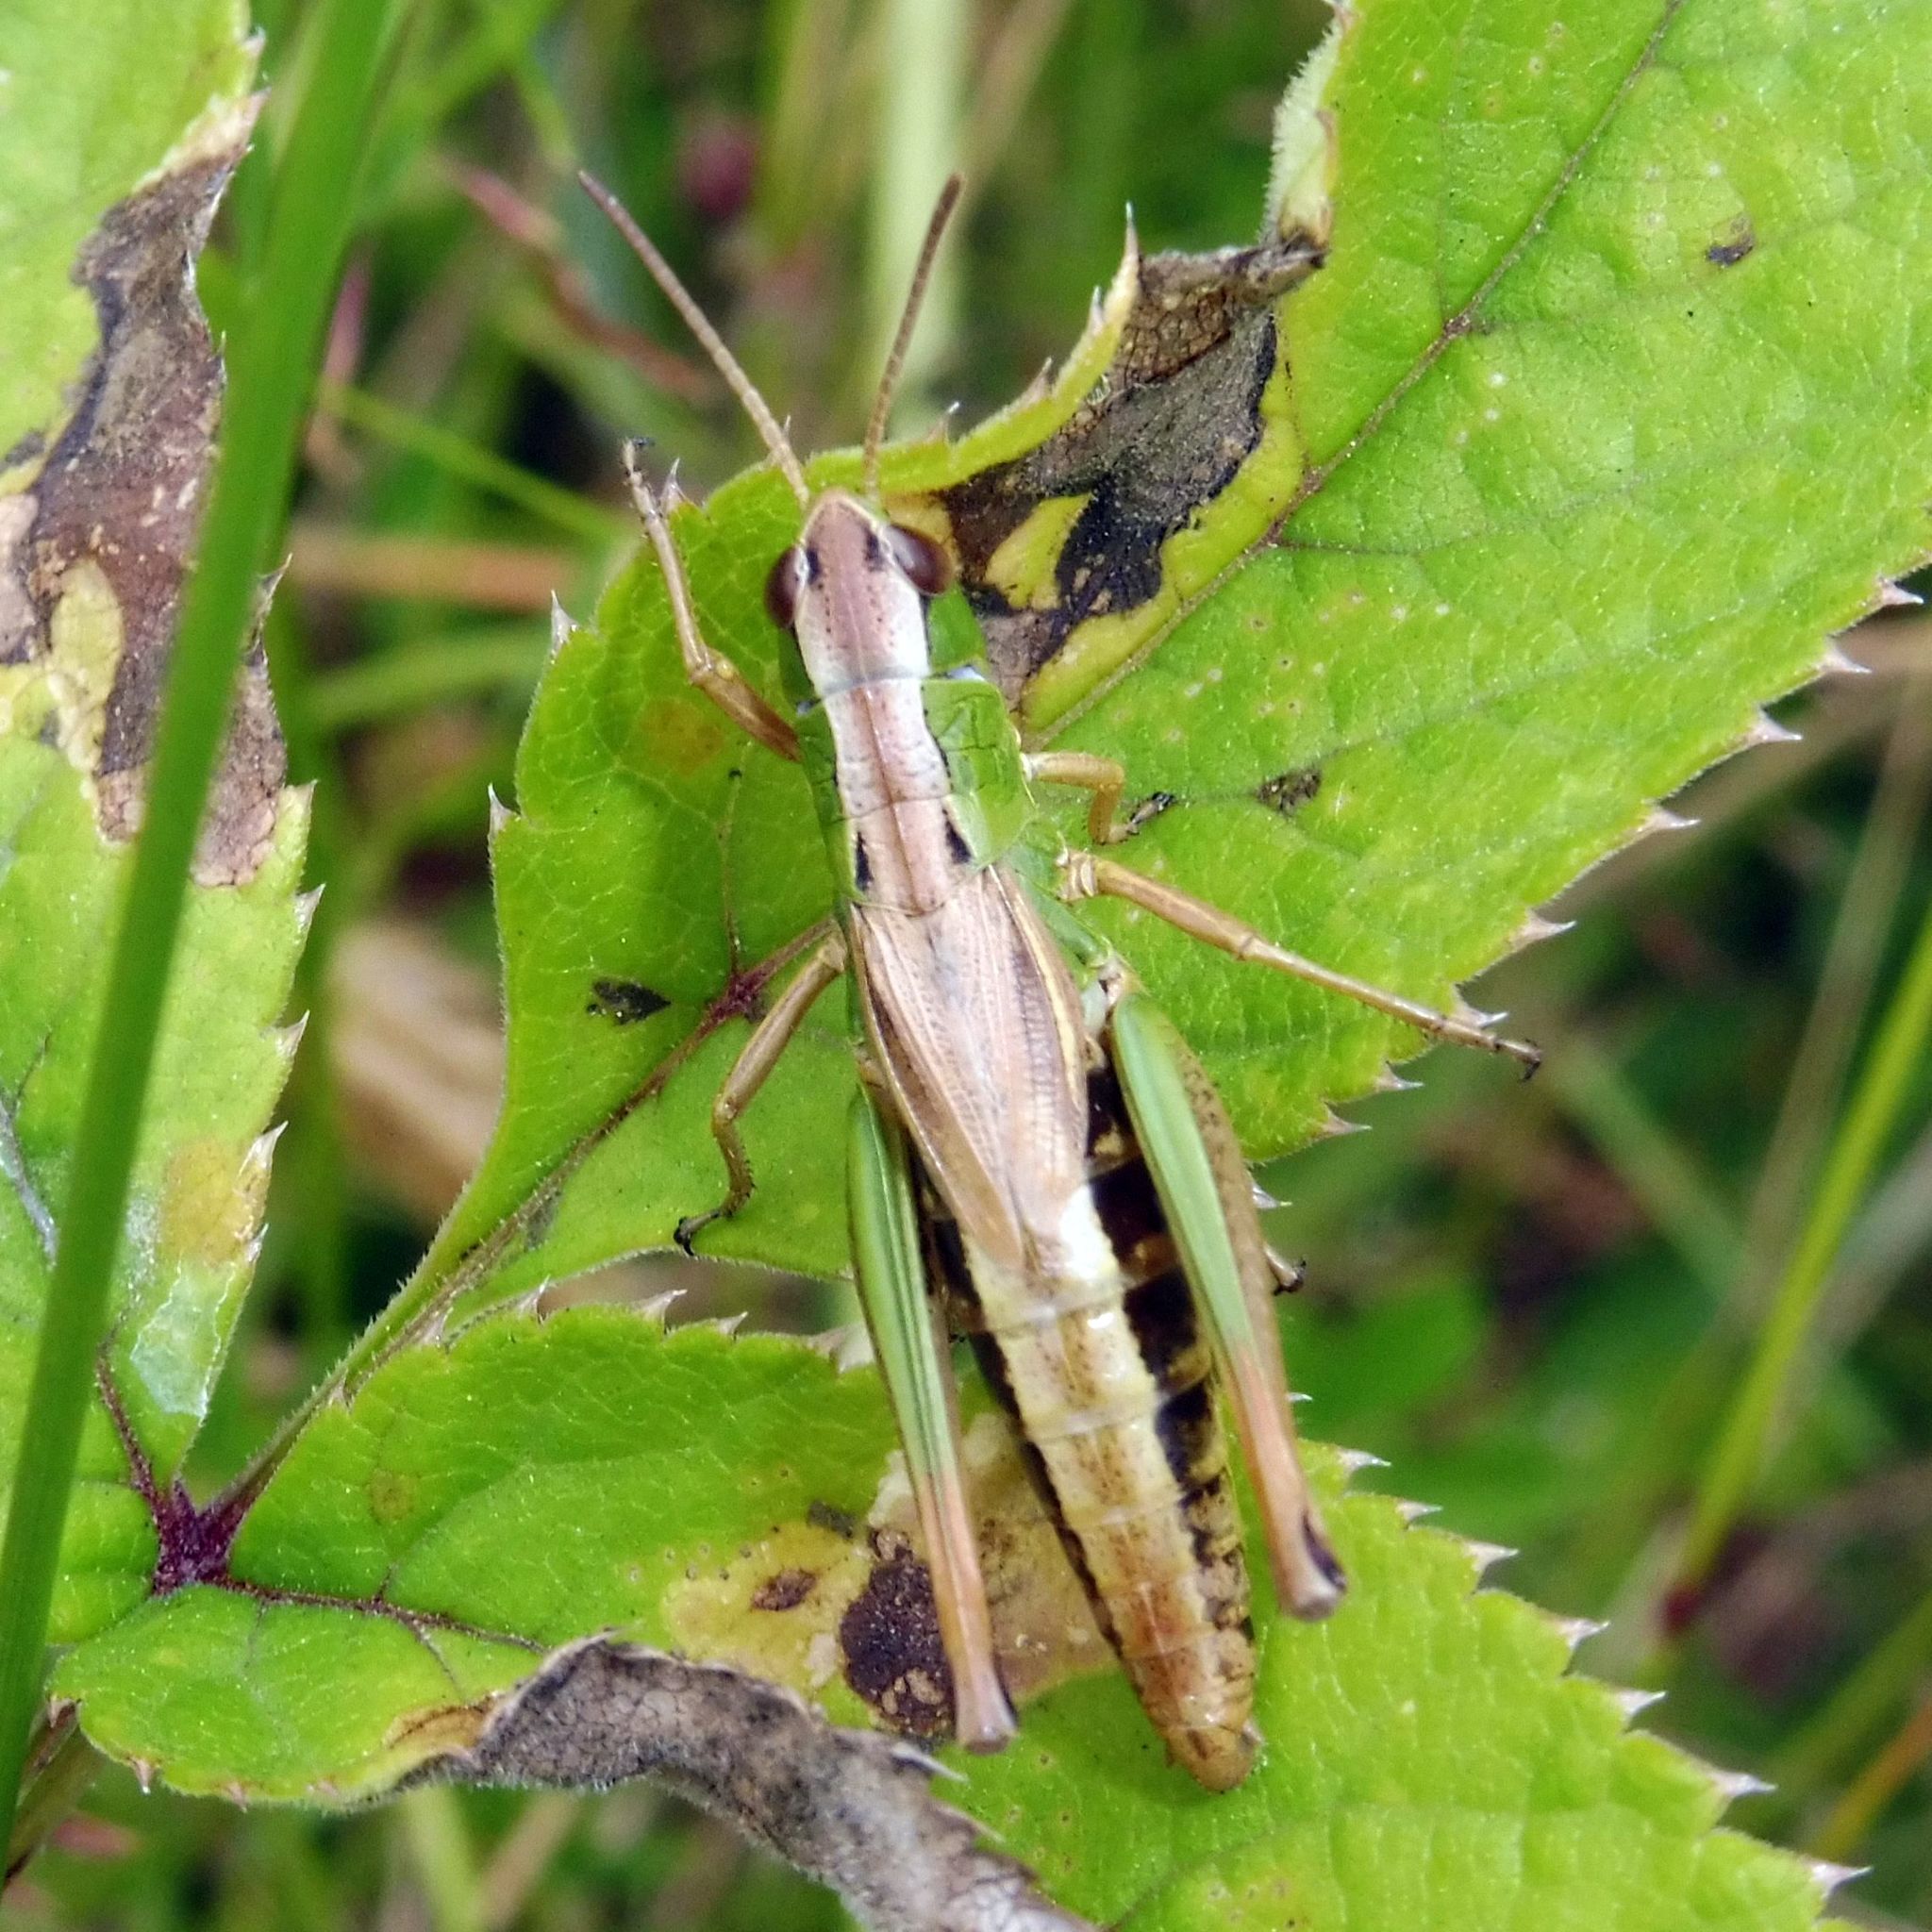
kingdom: Animalia
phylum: Arthropoda
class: Insecta
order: Orthoptera
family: Acrididae
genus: Pseudochorthippus
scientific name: Pseudochorthippus parallelus
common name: Meadow grasshopper
